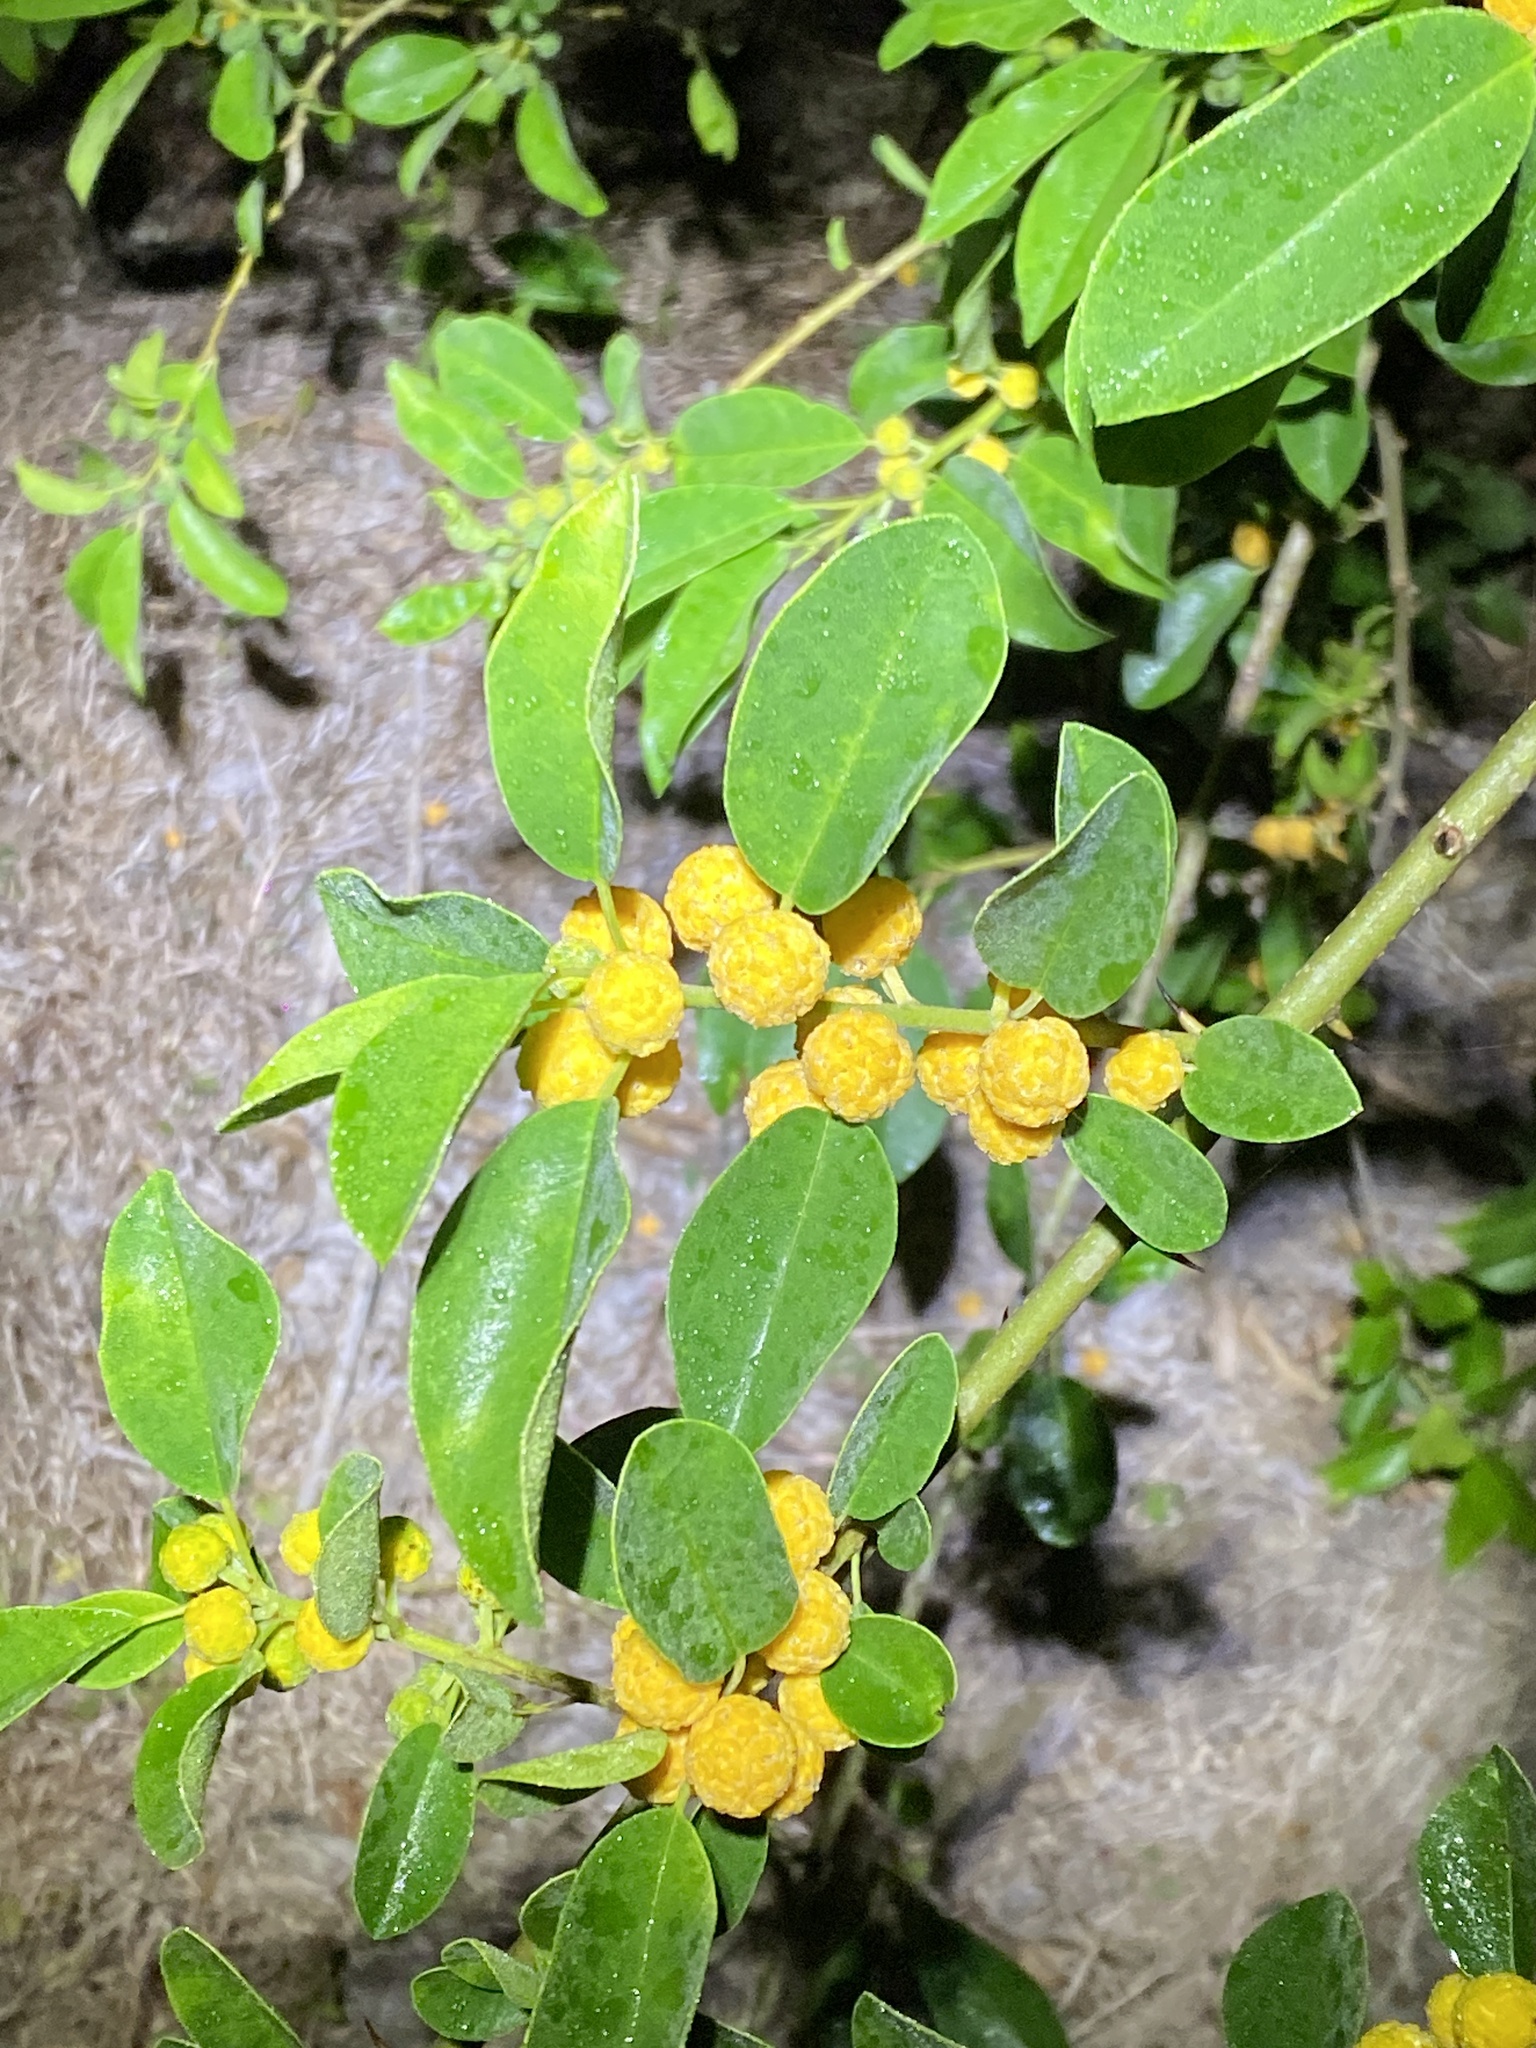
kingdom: Plantae
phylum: Tracheophyta
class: Magnoliopsida
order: Rosales
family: Moraceae
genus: Maclura
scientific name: Maclura cochinchinensis
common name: Cockspurthorn
